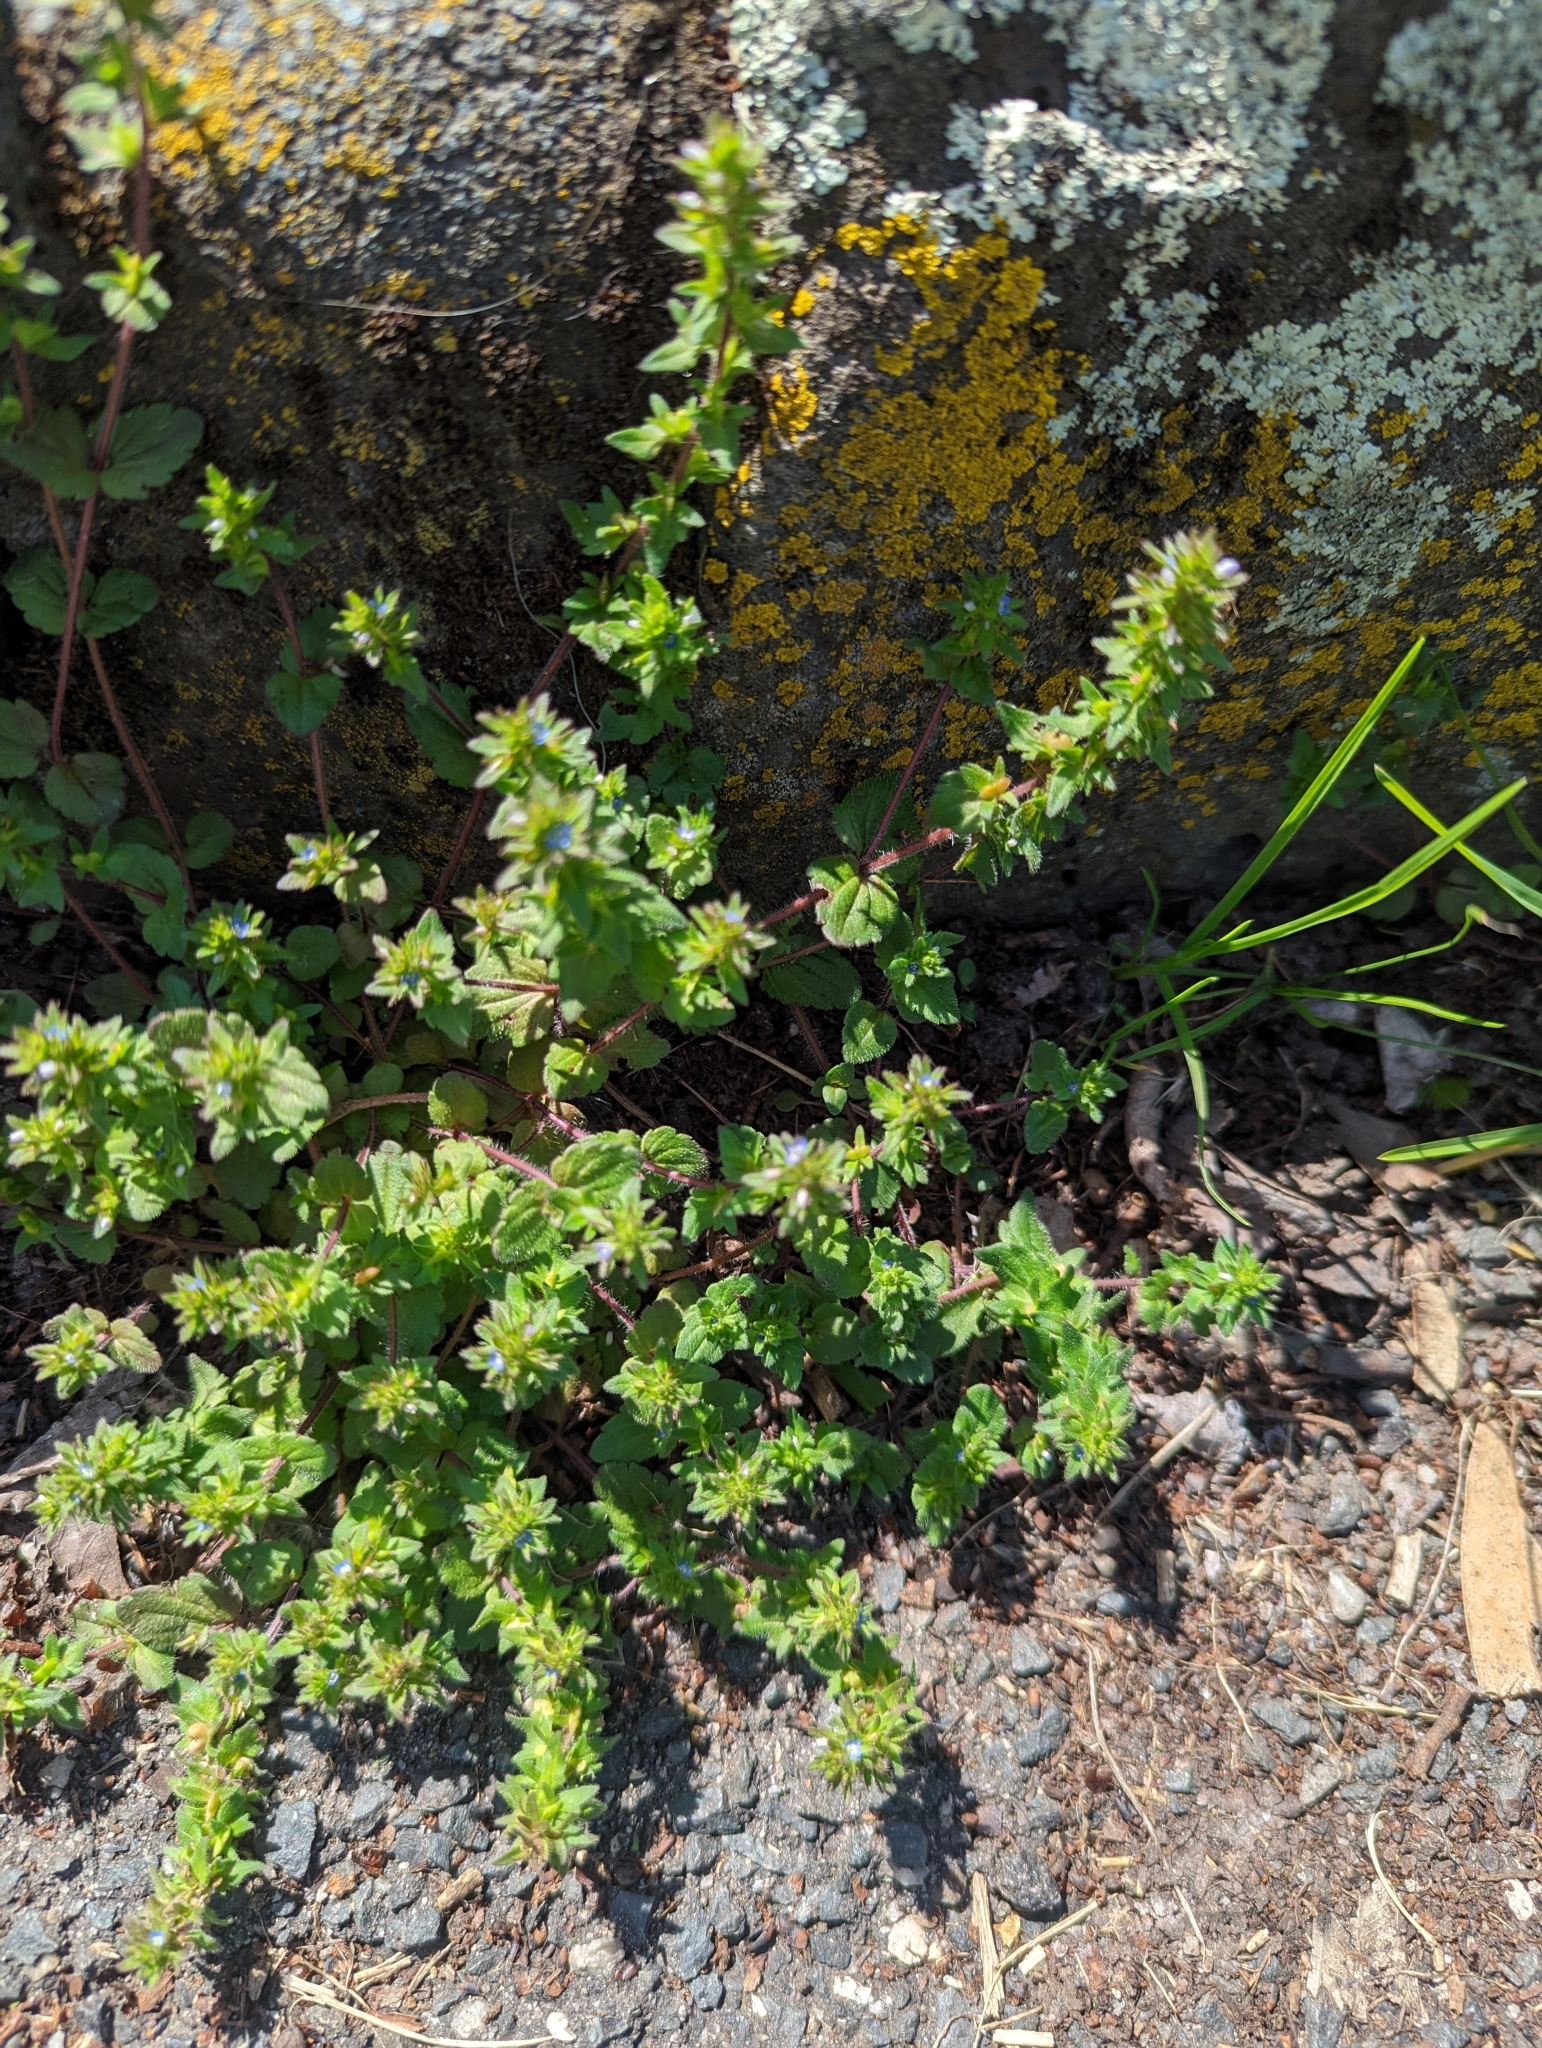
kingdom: Plantae
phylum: Tracheophyta
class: Magnoliopsida
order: Lamiales
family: Plantaginaceae
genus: Veronica
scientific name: Veronica arvensis
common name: Corn speedwell
